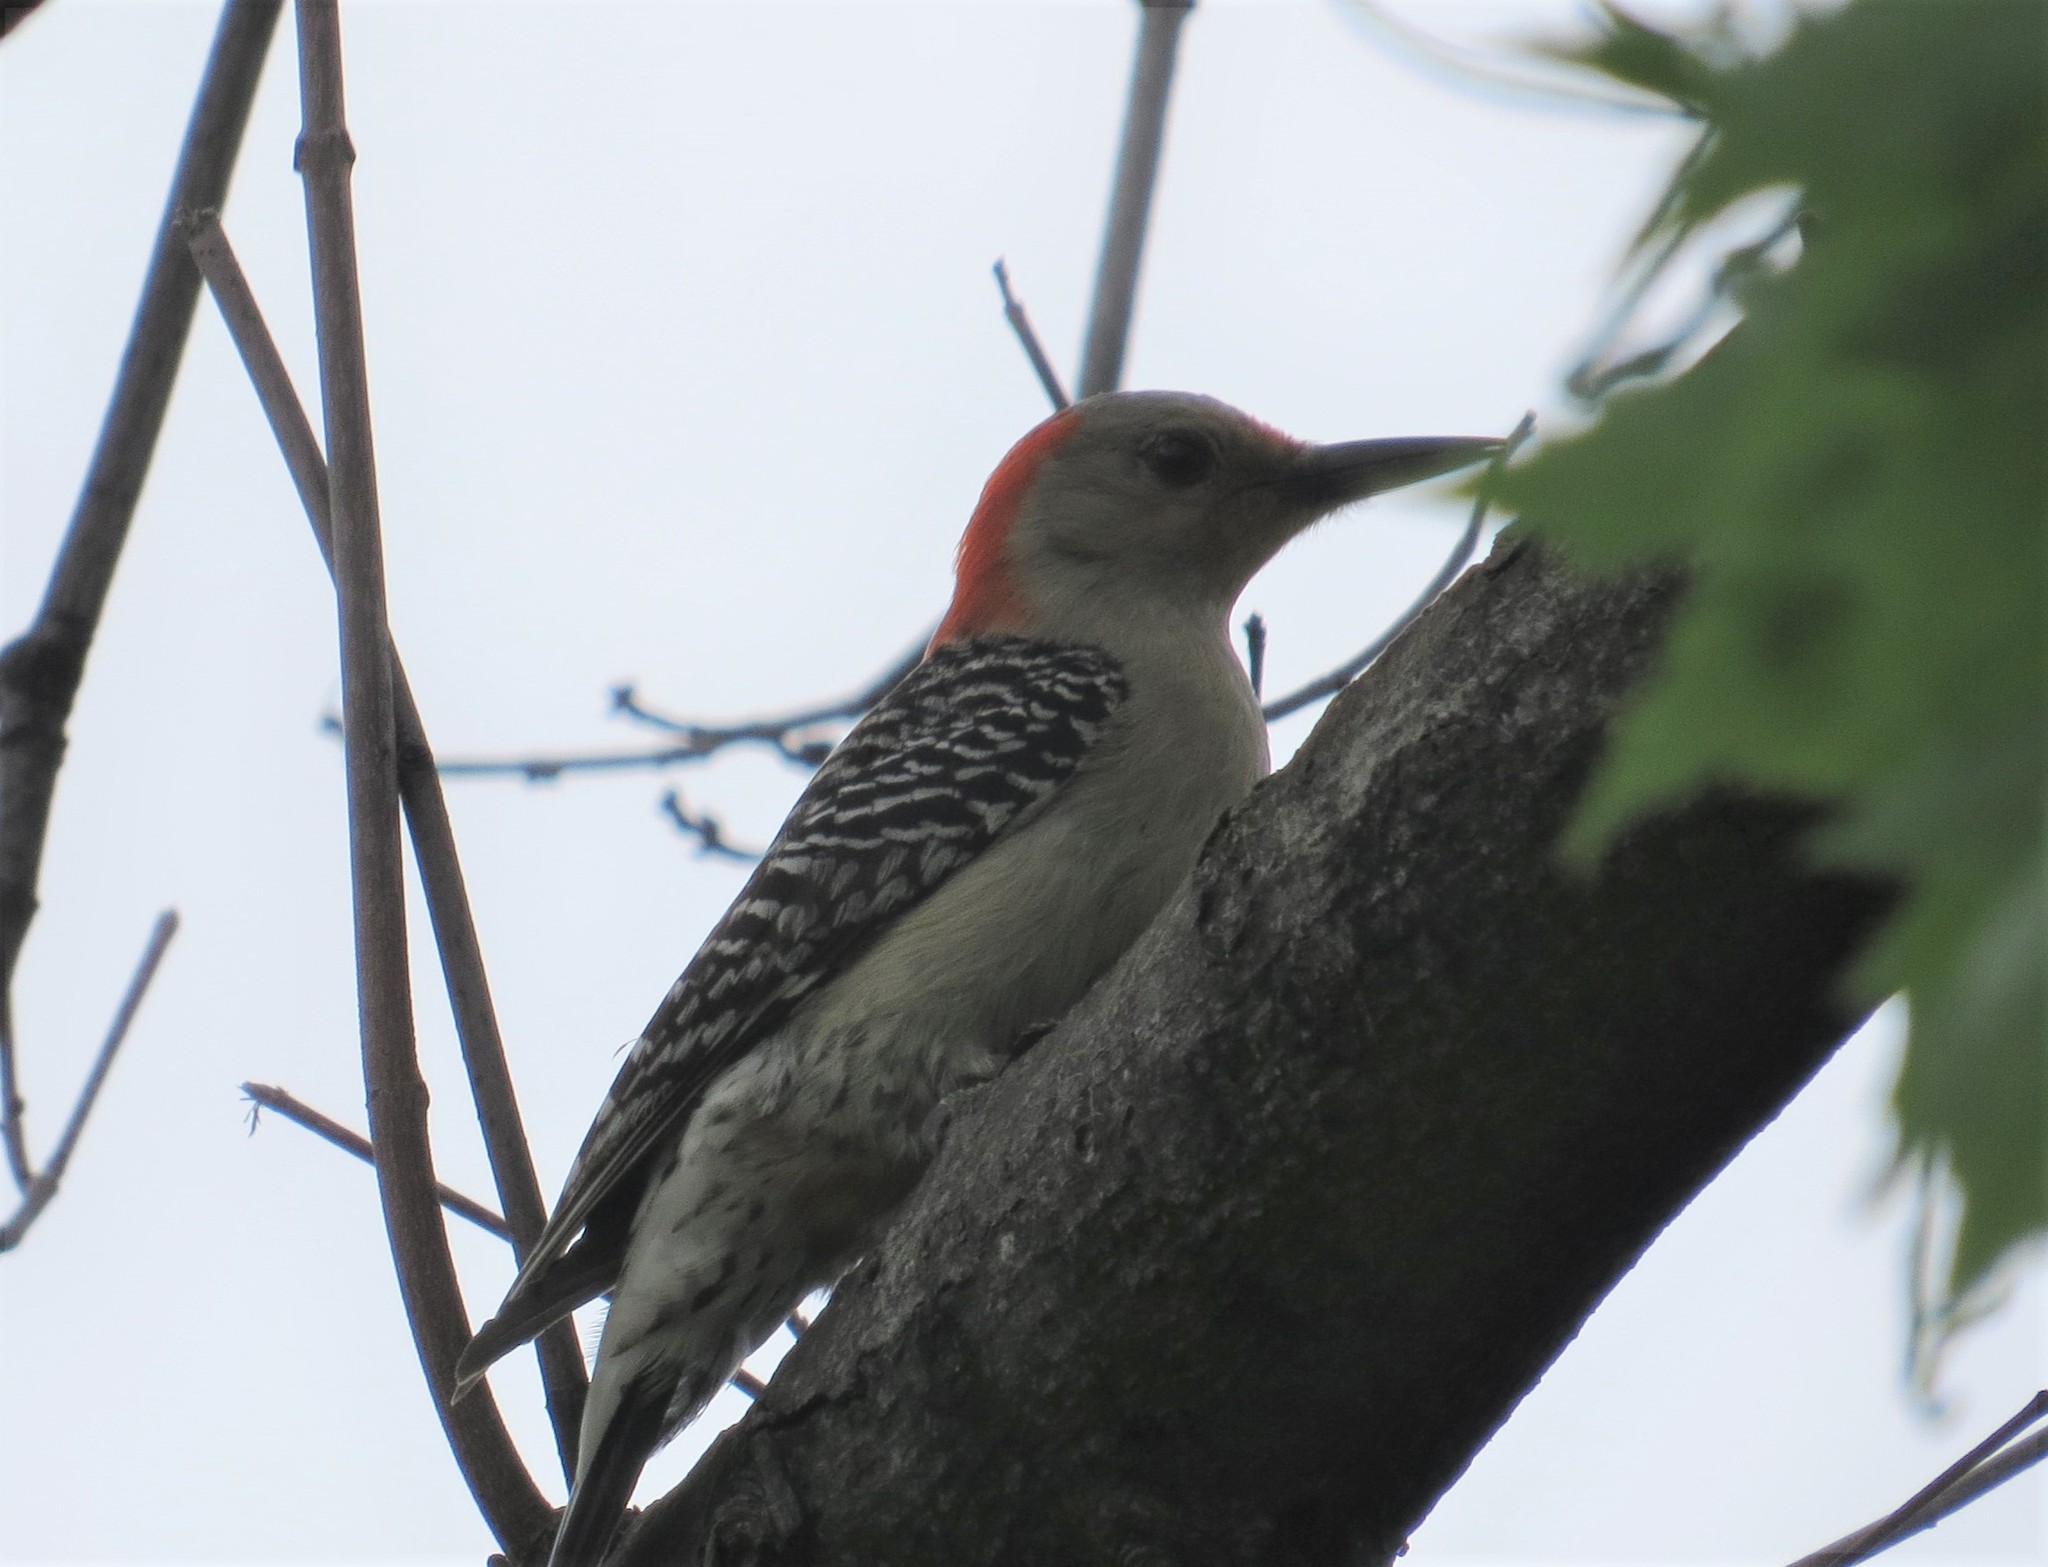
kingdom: Animalia
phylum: Chordata
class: Aves
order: Piciformes
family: Picidae
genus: Melanerpes
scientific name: Melanerpes carolinus
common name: Red-bellied woodpecker
